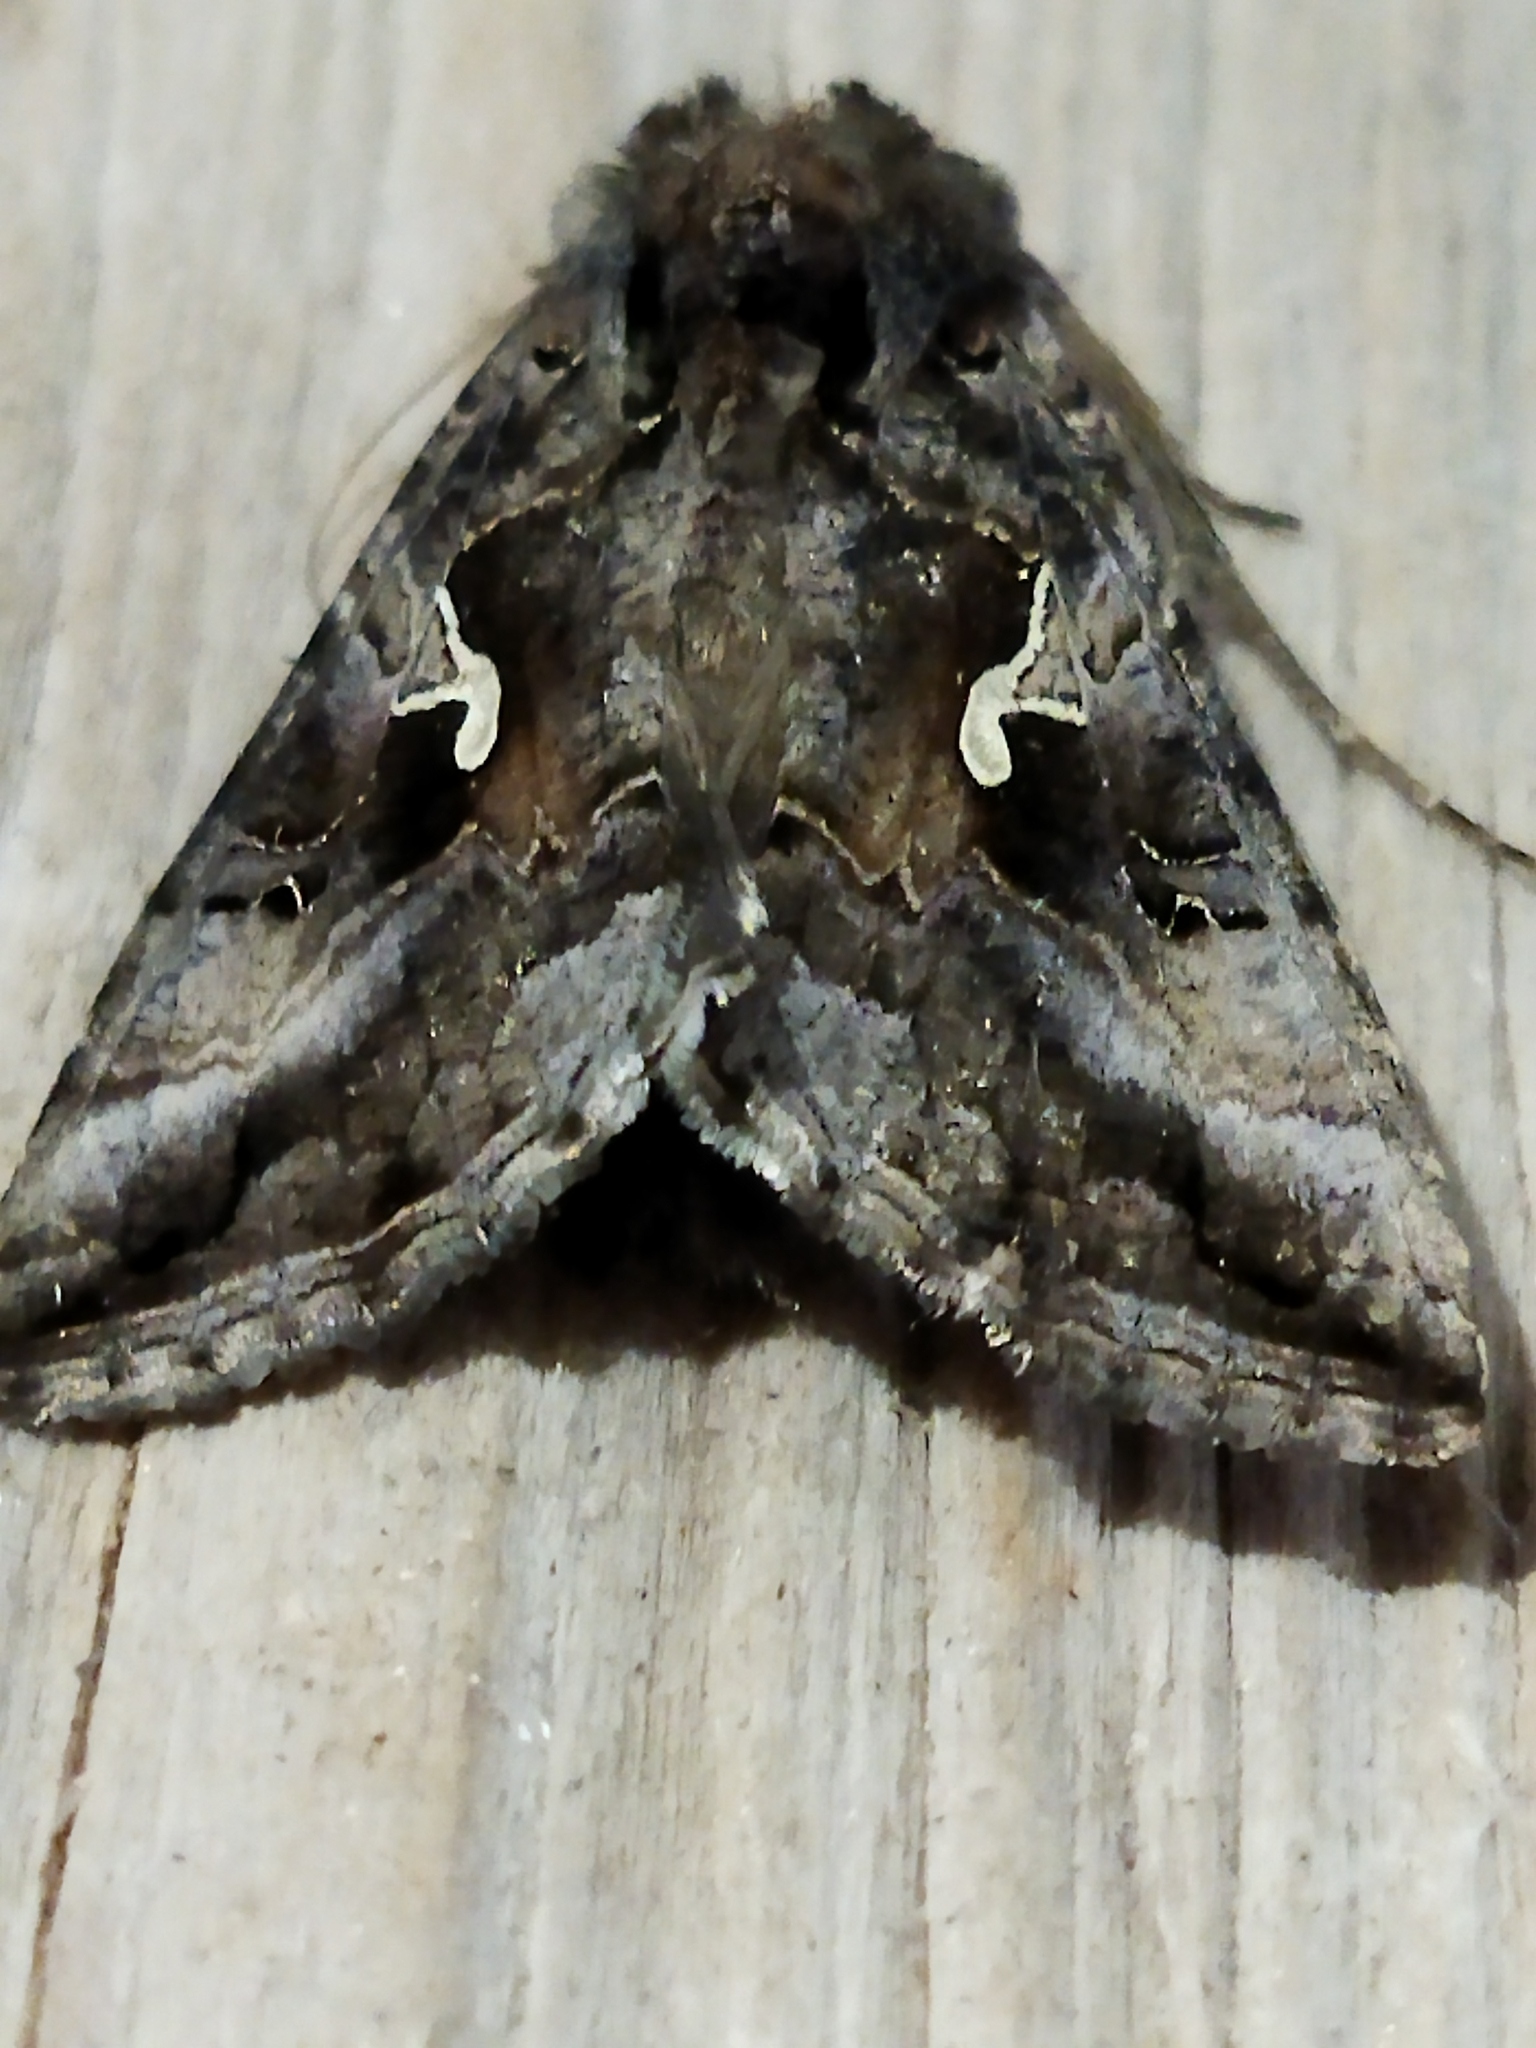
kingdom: Animalia
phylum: Arthropoda
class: Insecta
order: Lepidoptera
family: Noctuidae
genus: Autographa
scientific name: Autographa gamma
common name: Silver y
